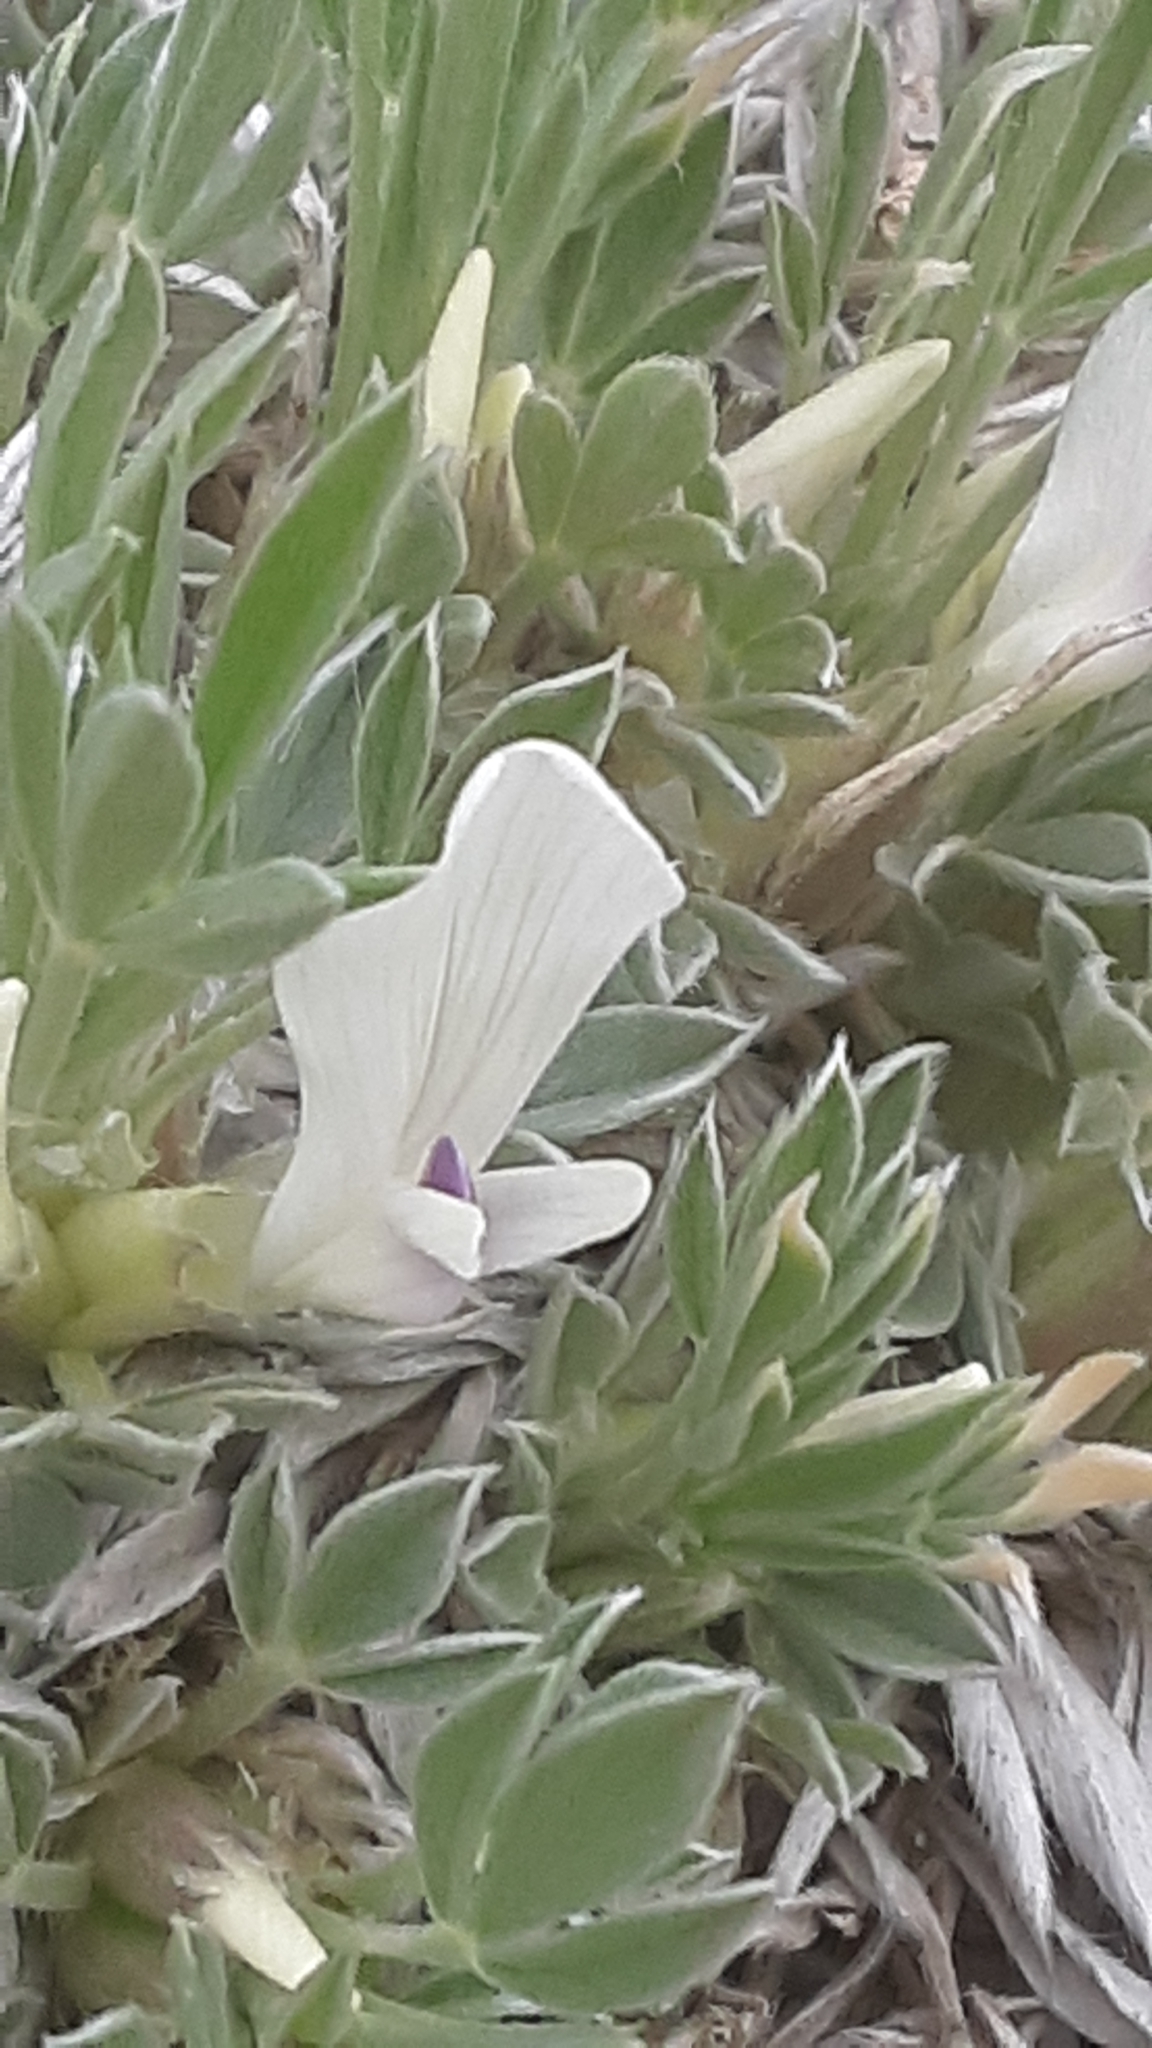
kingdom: Plantae
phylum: Tracheophyta
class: Magnoliopsida
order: Fabales
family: Fabaceae
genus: Astragalus
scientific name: Astragalus gilviflorus
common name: Cushion milk-vetch
